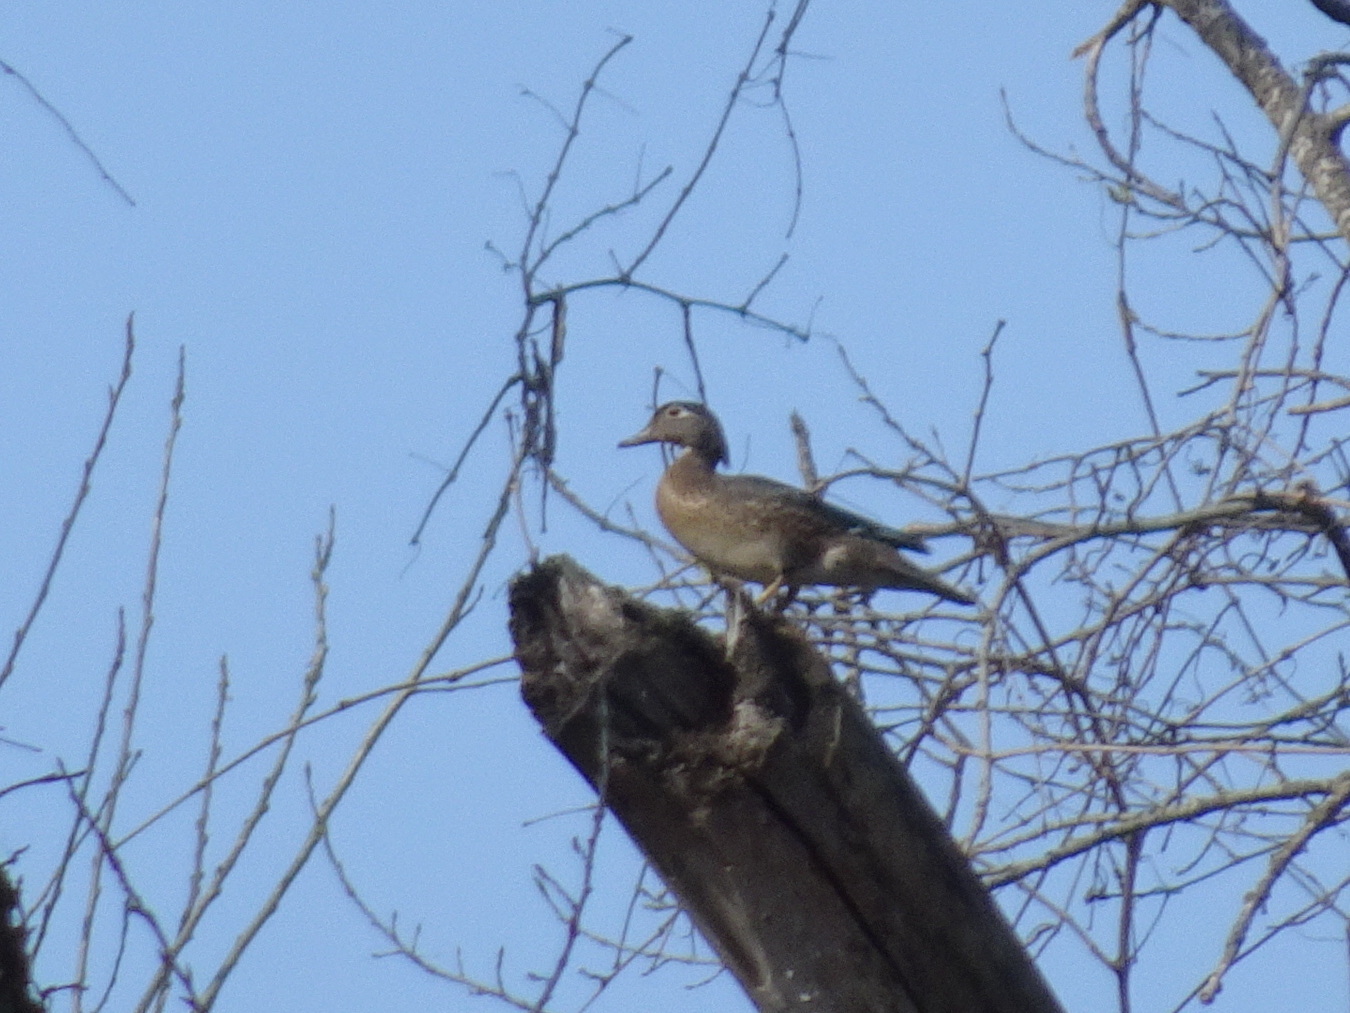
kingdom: Animalia
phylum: Chordata
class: Aves
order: Anseriformes
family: Anatidae
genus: Aix
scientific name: Aix sponsa
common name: Wood duck
